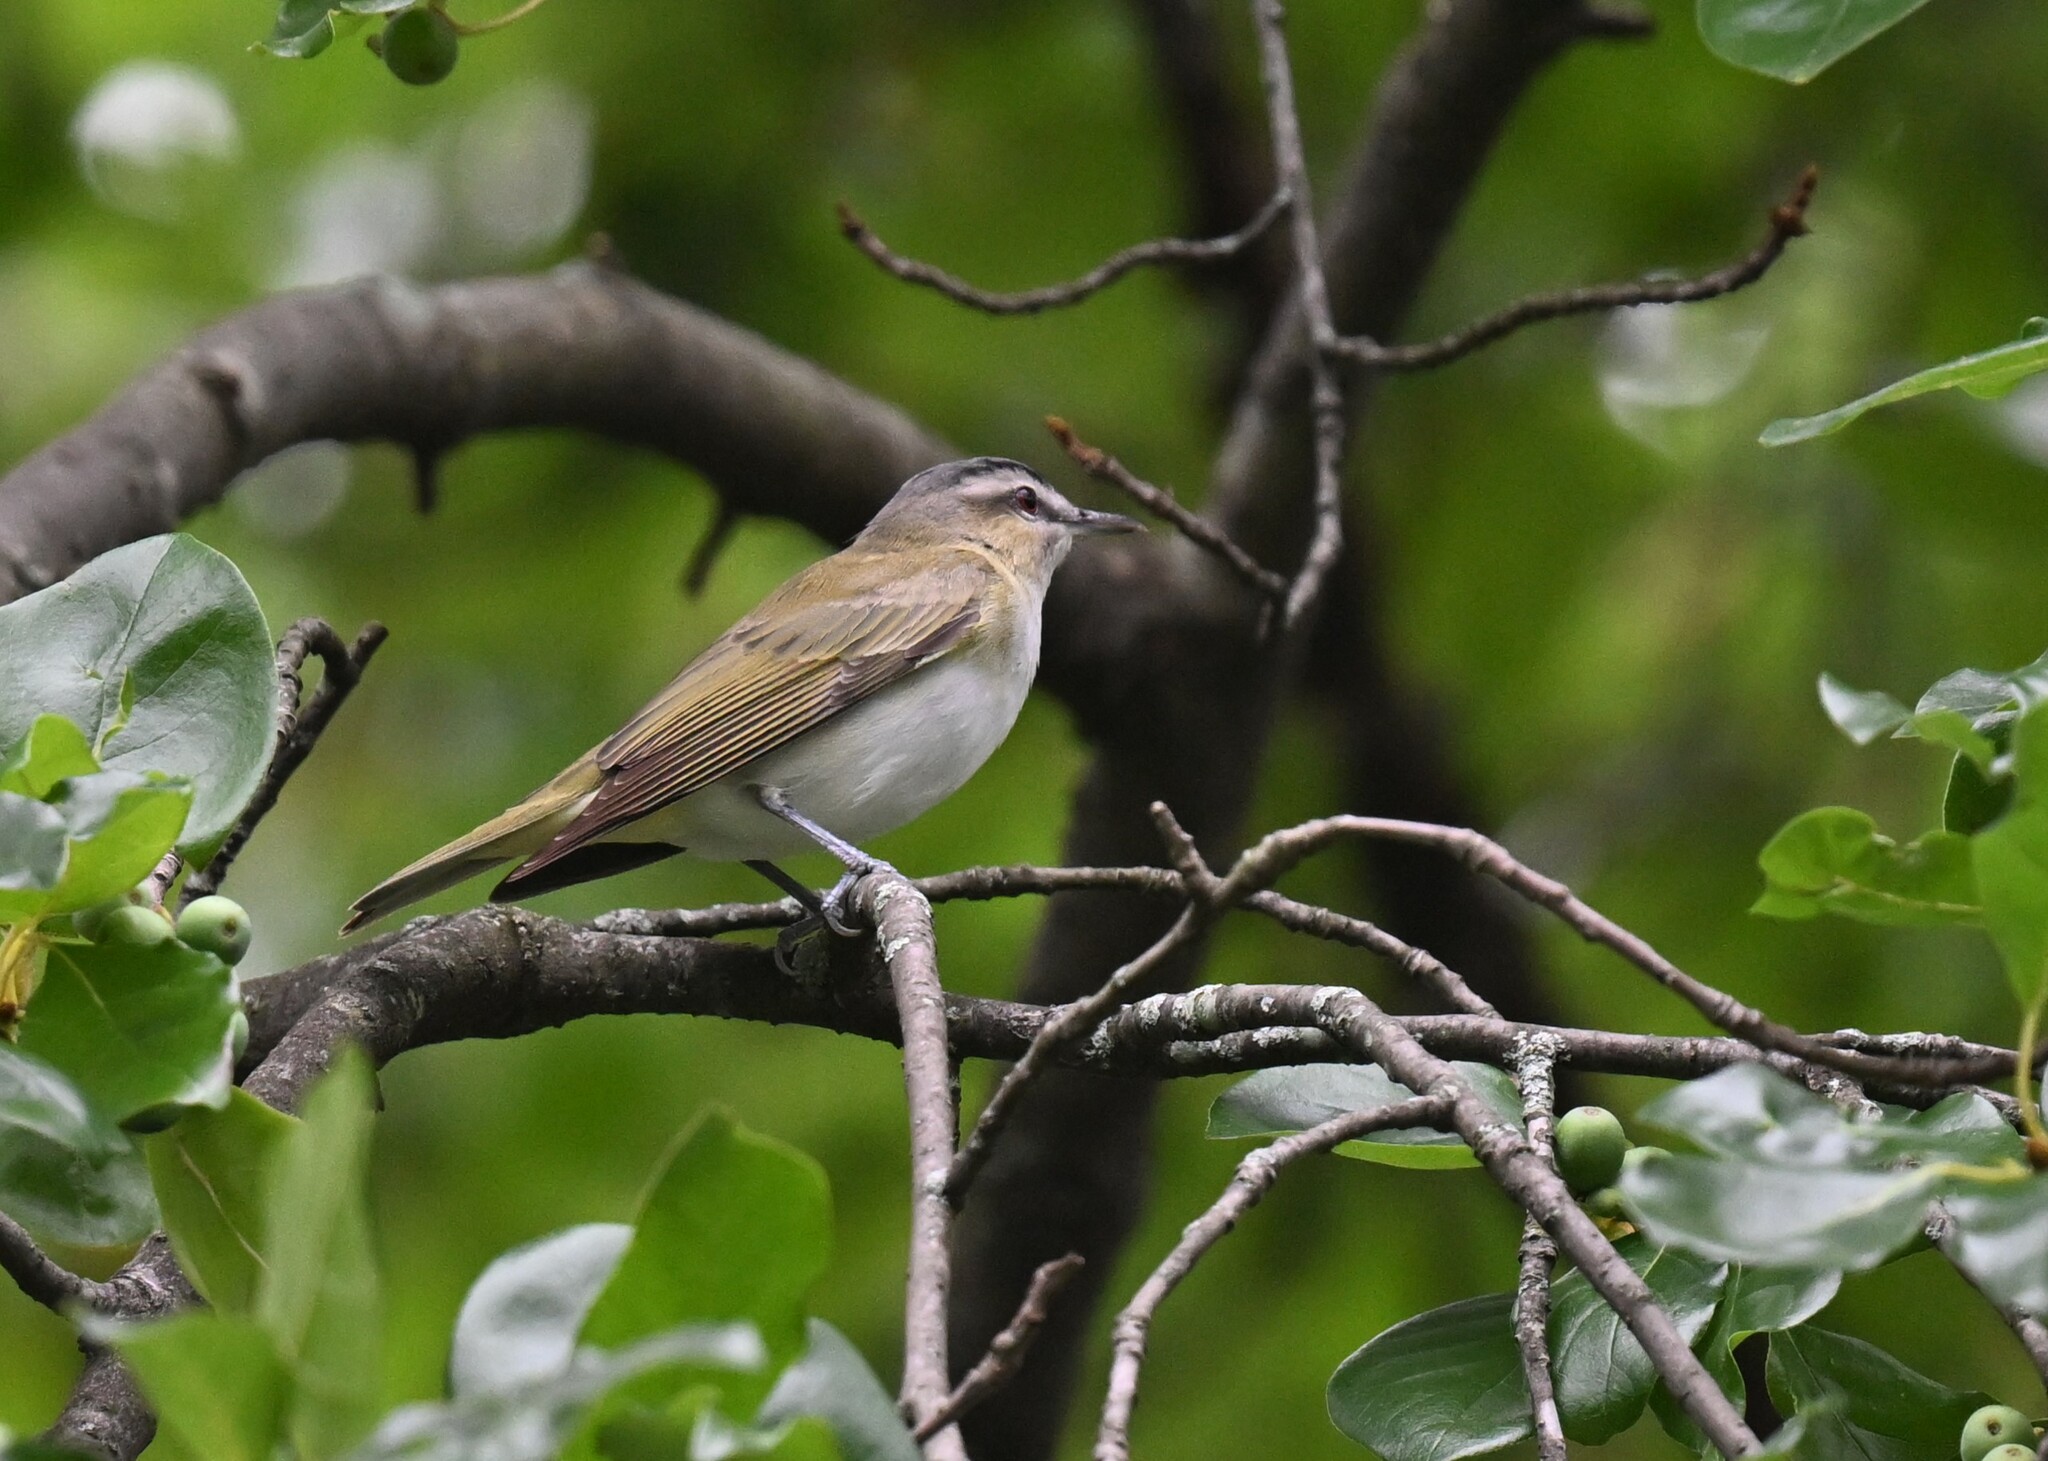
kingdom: Animalia
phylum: Chordata
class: Aves
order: Passeriformes
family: Vireonidae
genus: Vireo
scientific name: Vireo olivaceus
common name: Red-eyed vireo
